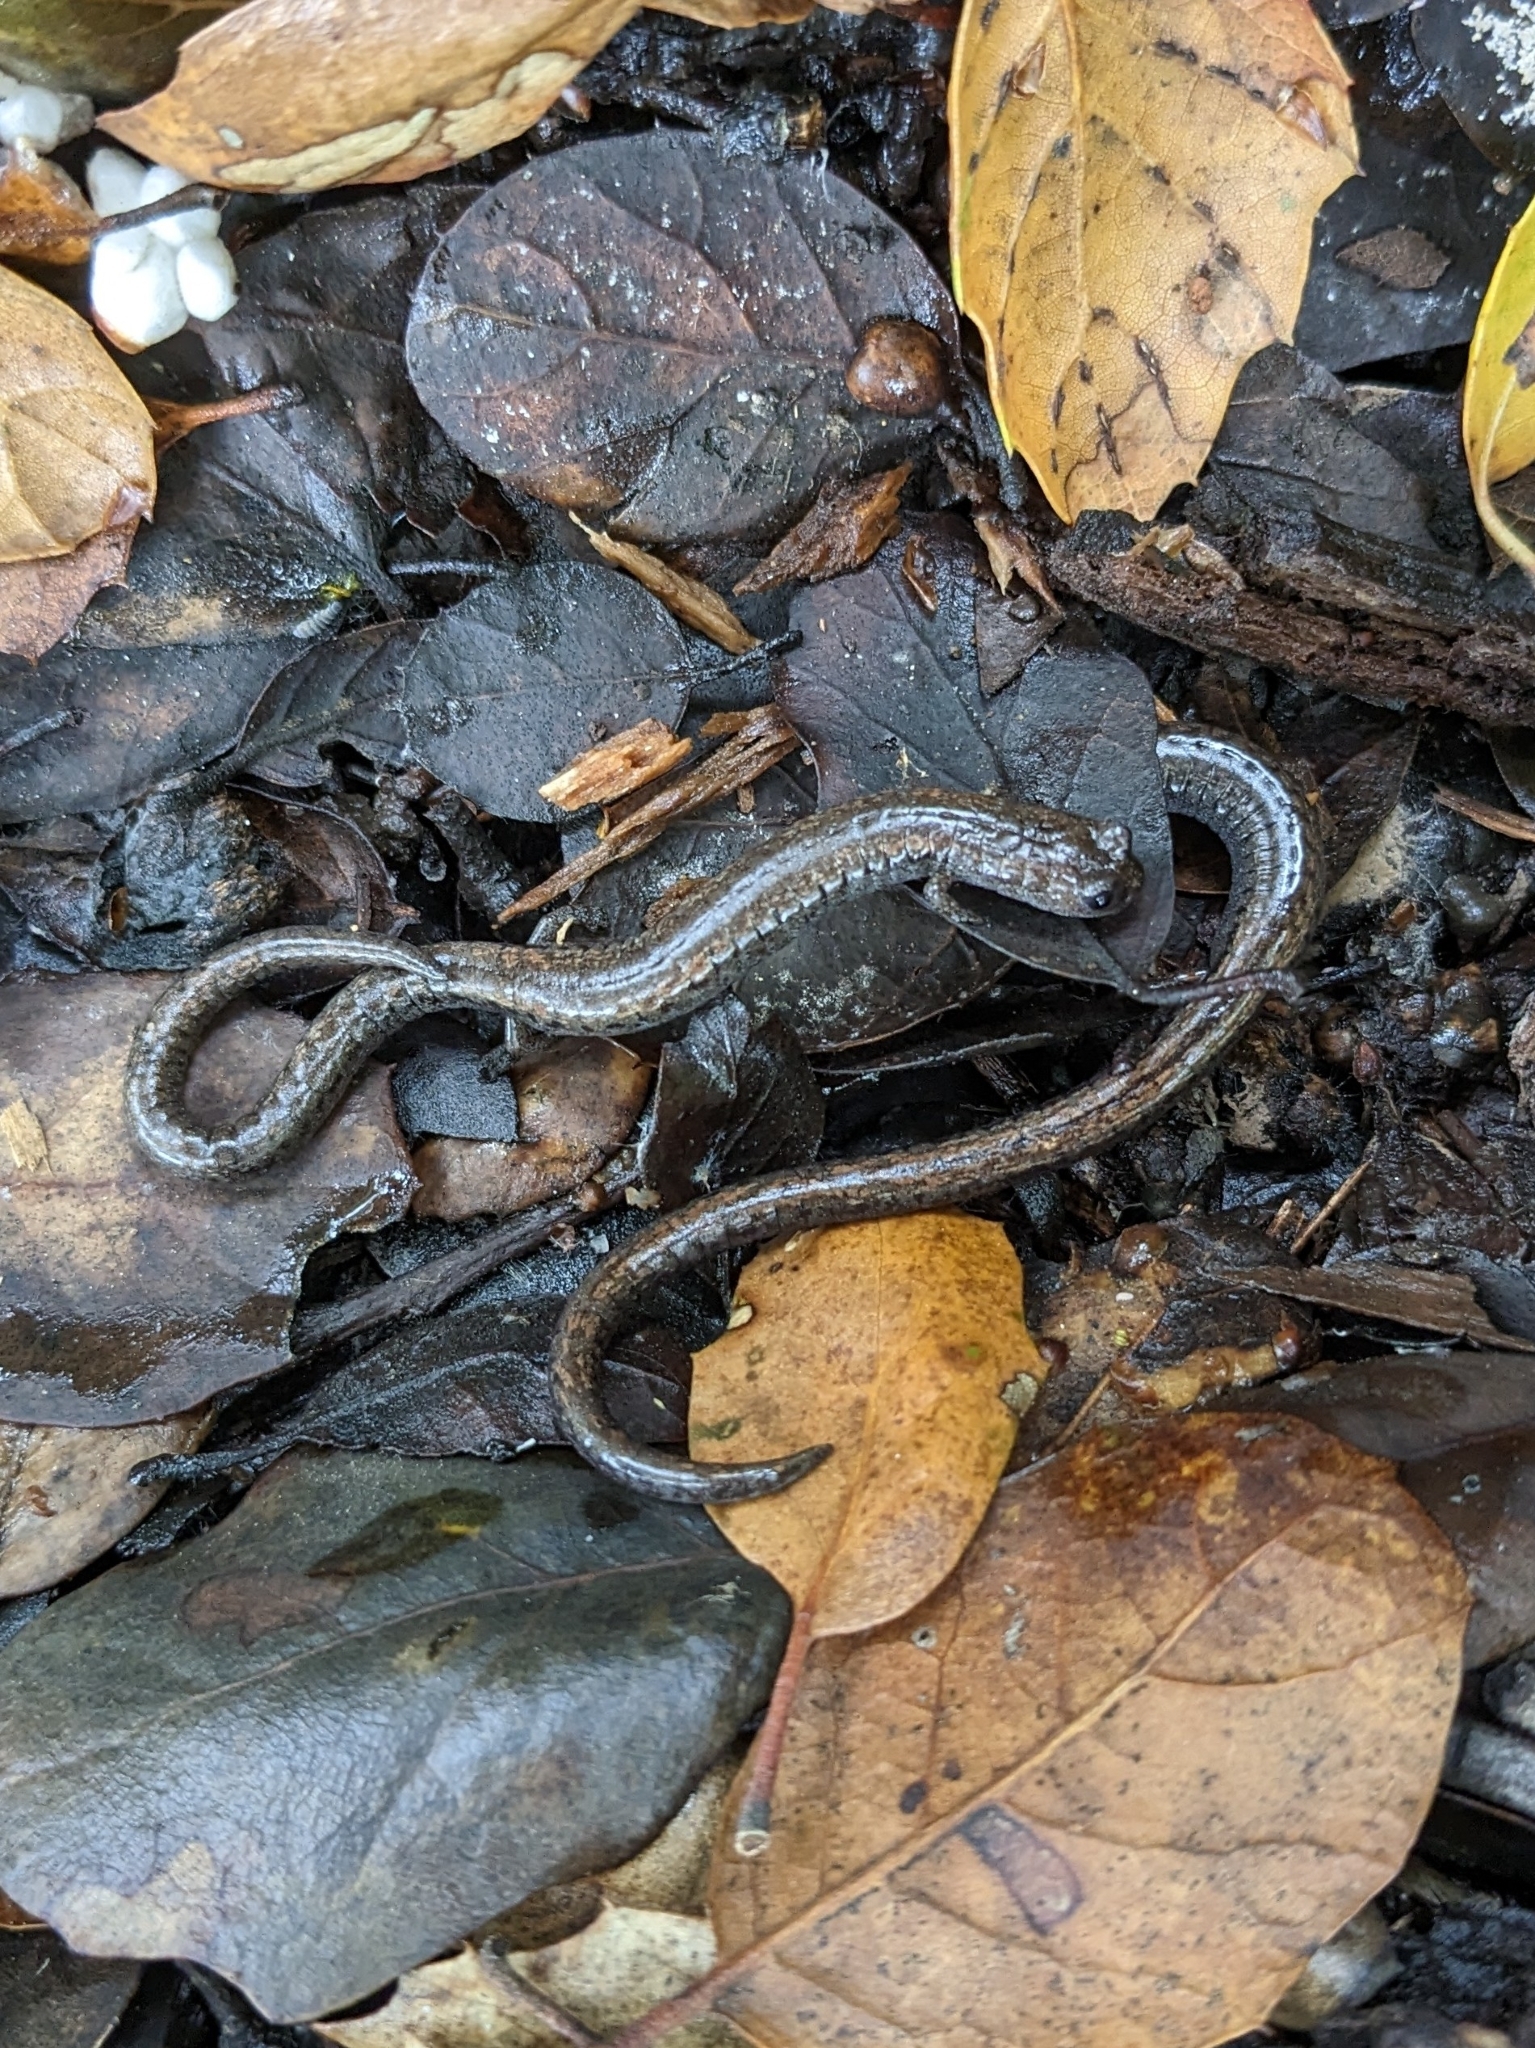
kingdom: Animalia
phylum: Chordata
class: Amphibia
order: Caudata
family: Plethodontidae
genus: Batrachoseps
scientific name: Batrachoseps attenuatus
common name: California slender salamander
